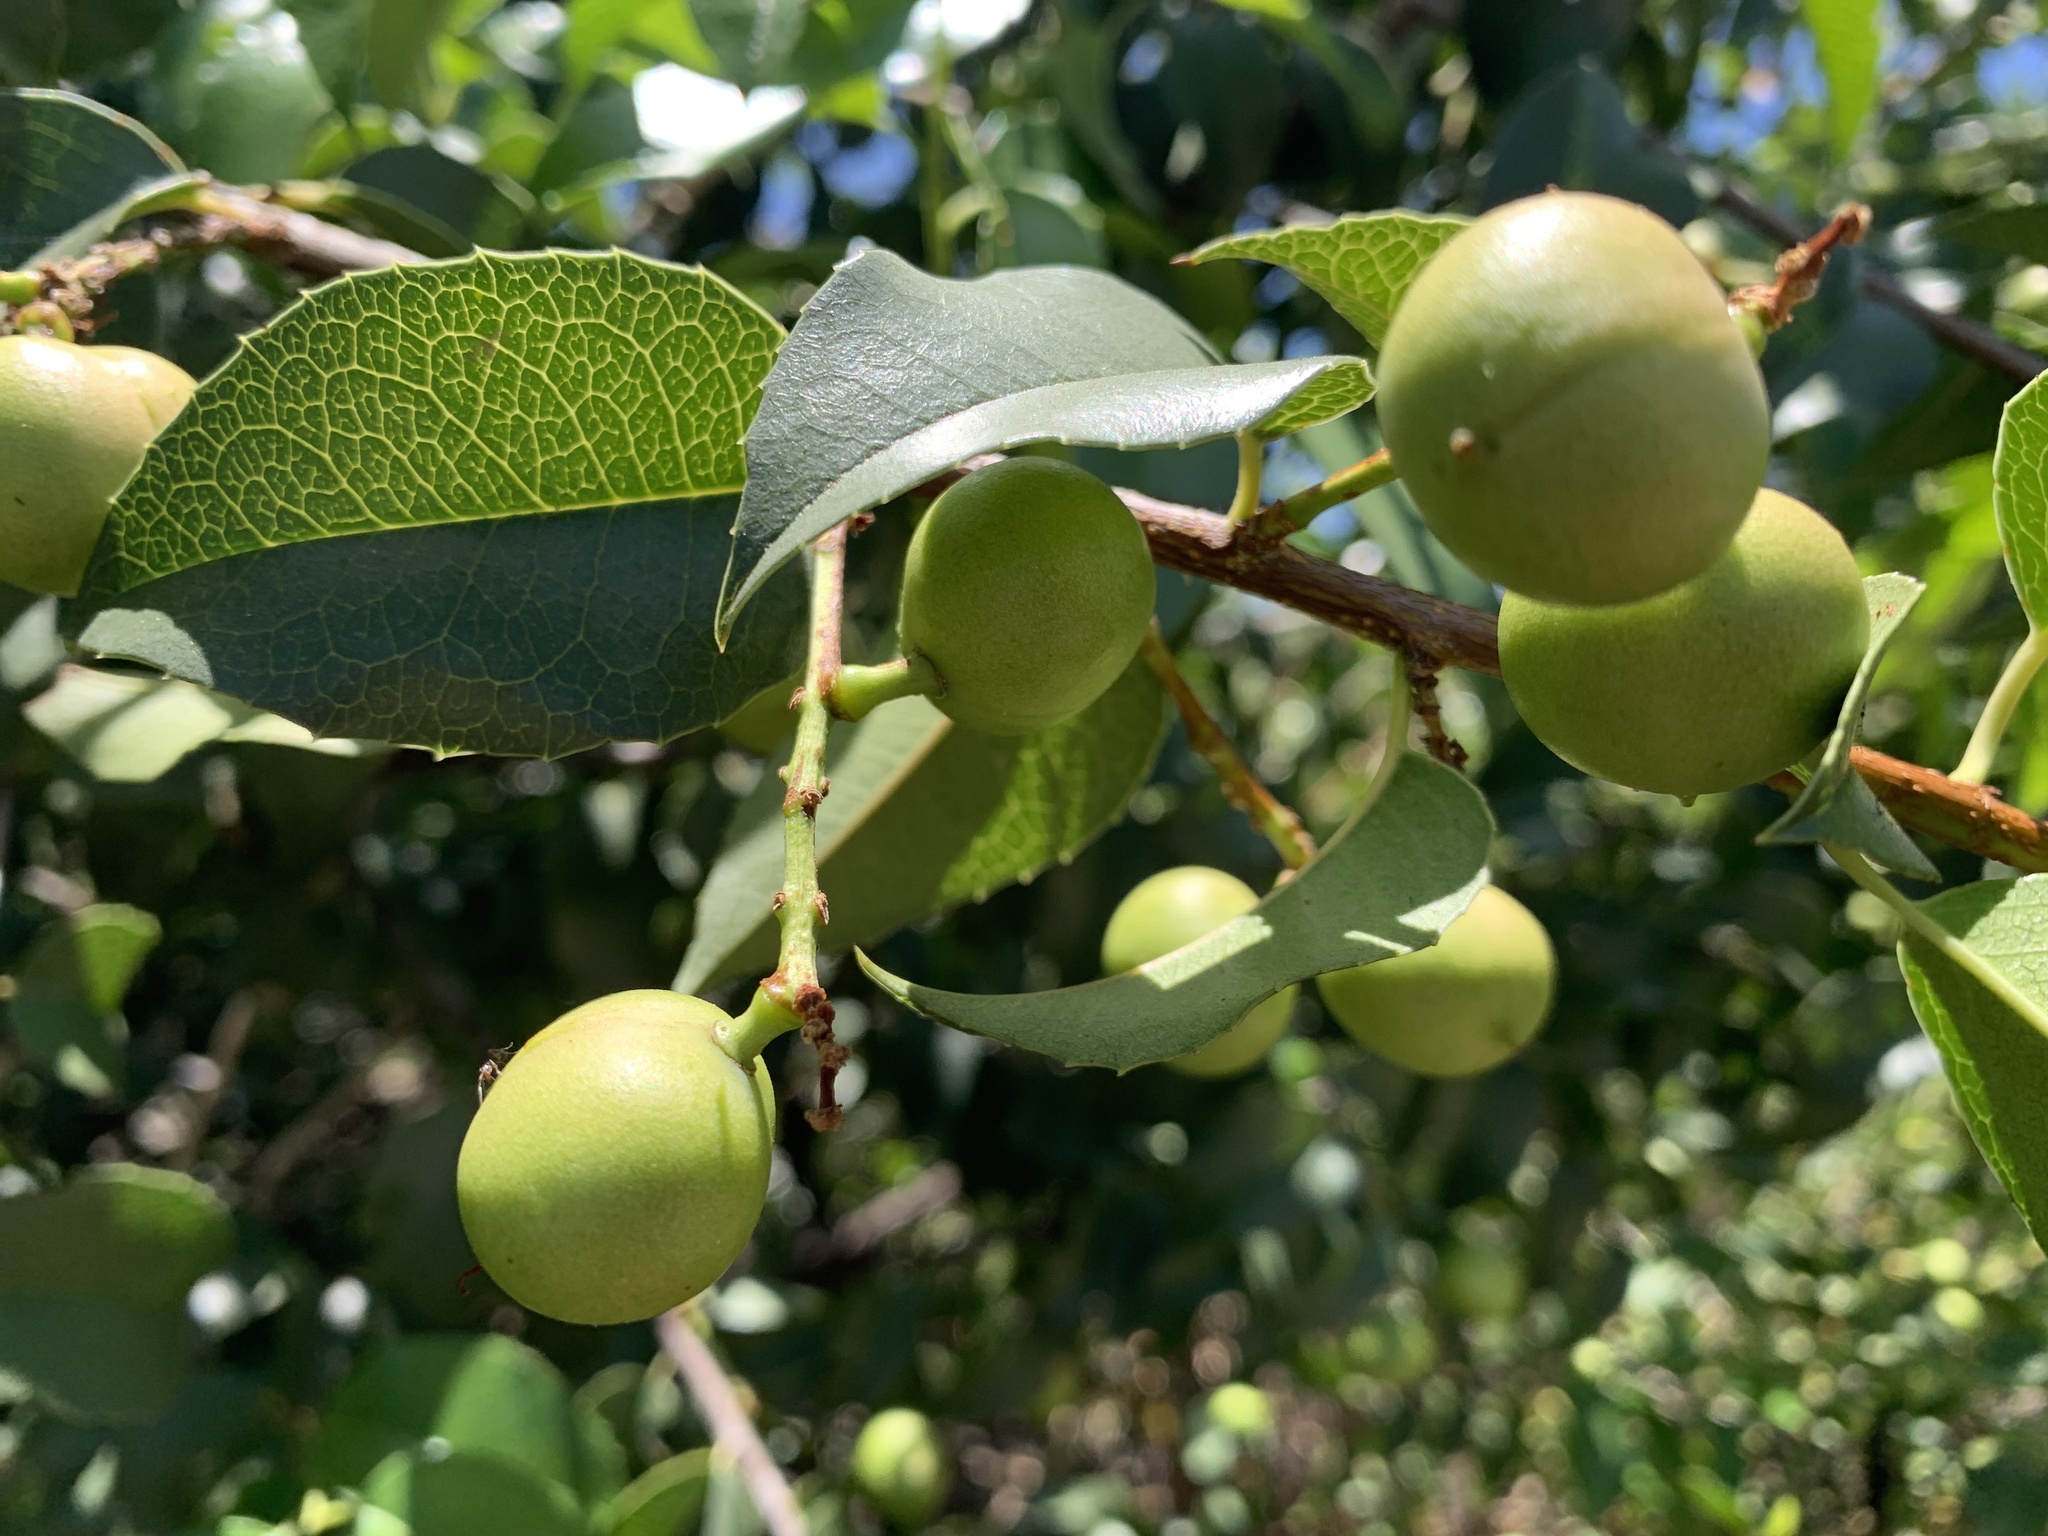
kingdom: Plantae
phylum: Tracheophyta
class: Magnoliopsida
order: Rosales
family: Rosaceae
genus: Prunus
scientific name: Prunus ilicifolia
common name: Hollyleaf cherry
